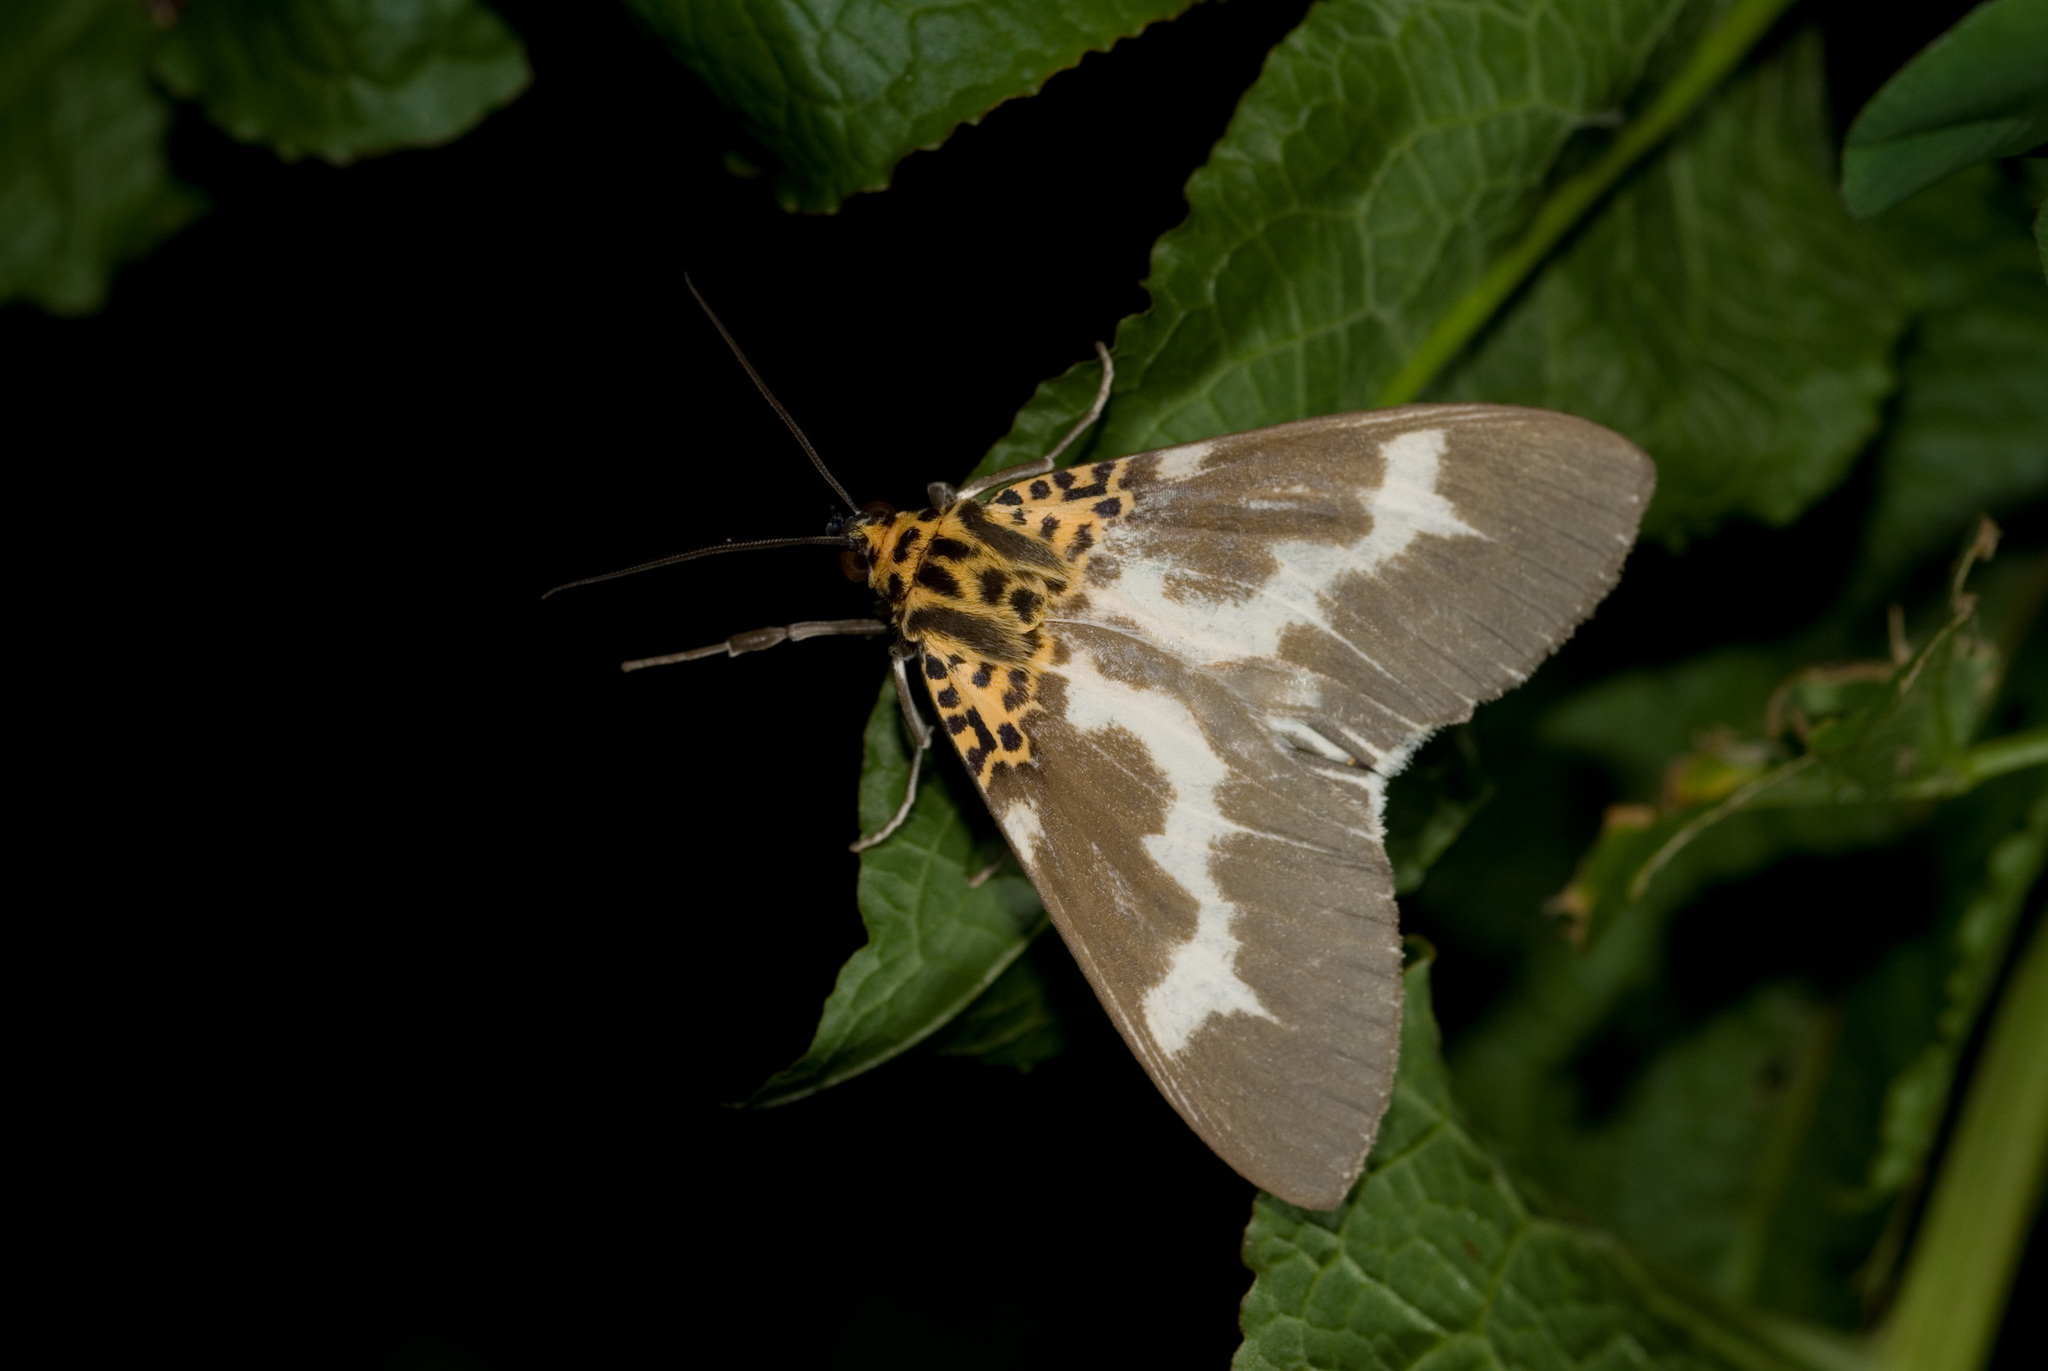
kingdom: Animalia
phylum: Arthropoda
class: Insecta
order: Lepidoptera
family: Erebidae
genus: Asota
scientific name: Asota tortuosa
